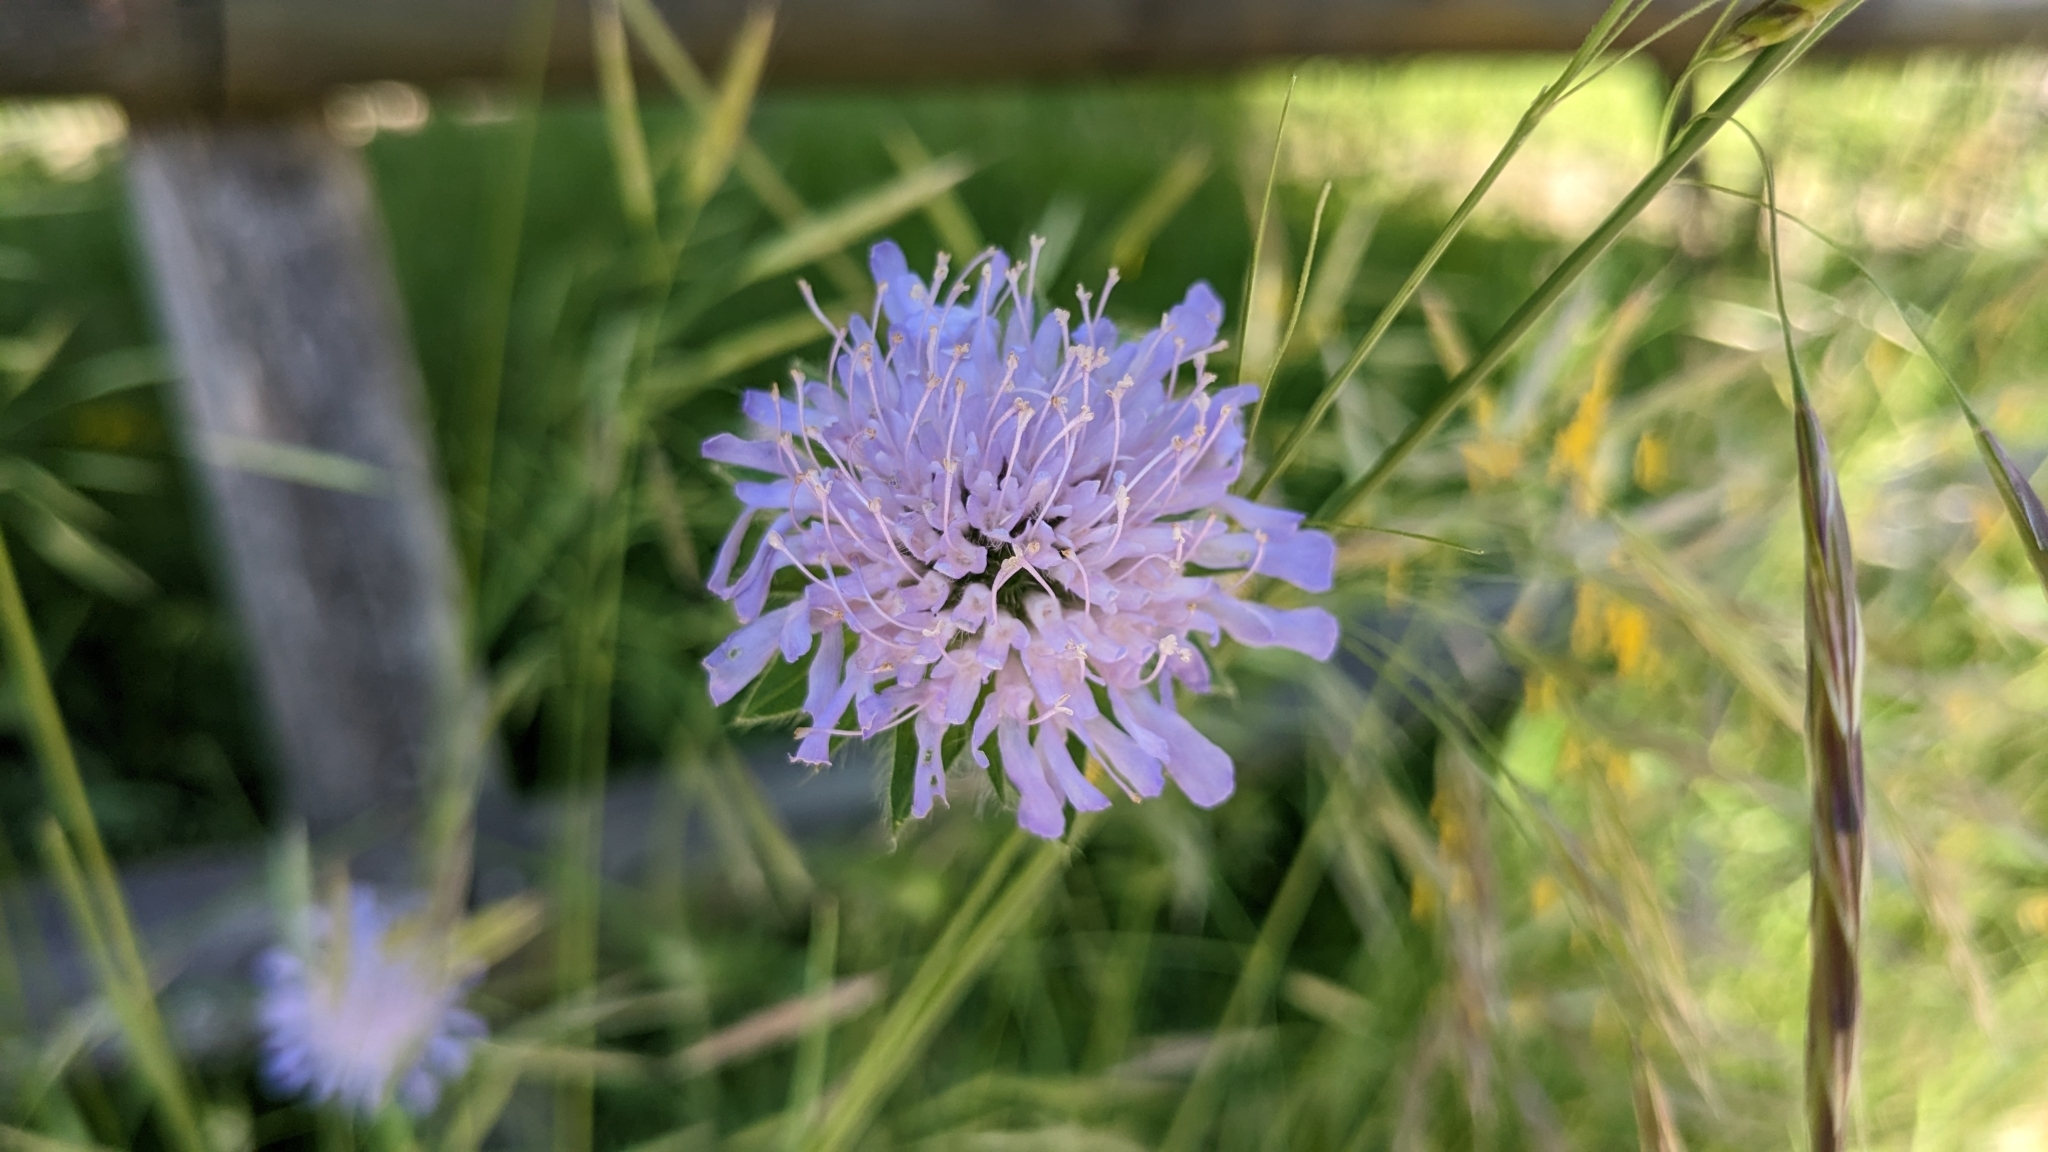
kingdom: Plantae
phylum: Tracheophyta
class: Magnoliopsida
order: Dipsacales
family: Caprifoliaceae
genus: Knautia
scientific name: Knautia arvensis
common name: Field scabiosa
